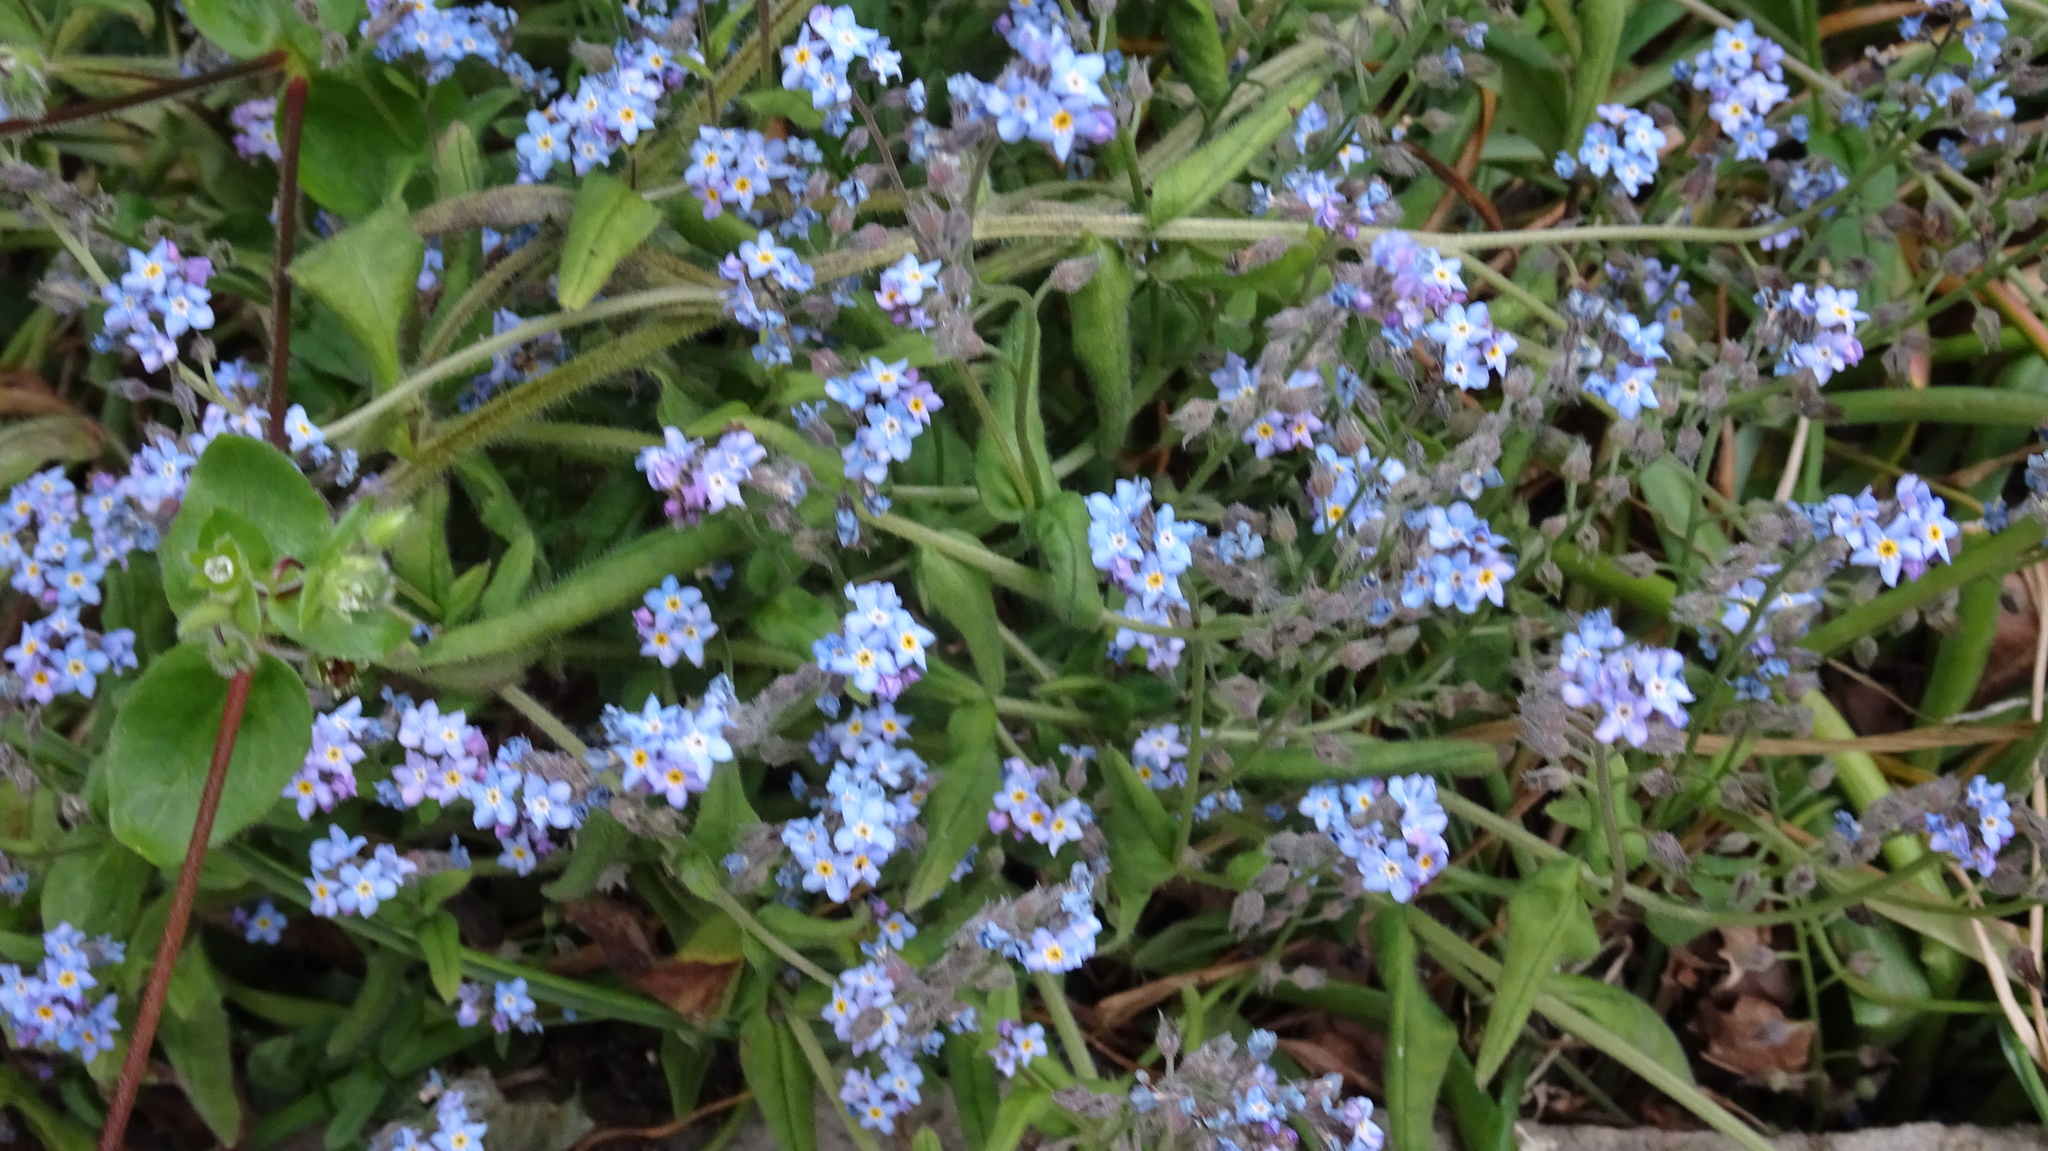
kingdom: Plantae
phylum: Tracheophyta
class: Magnoliopsida
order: Boraginales
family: Boraginaceae
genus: Myosotis
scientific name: Myosotis sylvatica
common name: Wood forget-me-not
